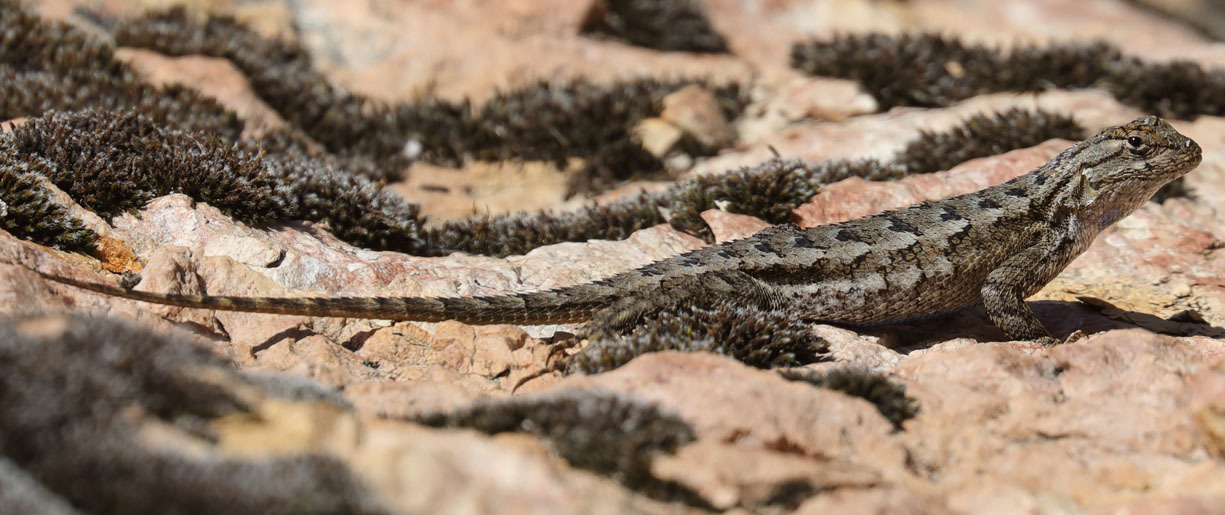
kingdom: Animalia
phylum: Chordata
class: Squamata
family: Phrynosomatidae
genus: Sceloporus
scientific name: Sceloporus occidentalis
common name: Western fence lizard
